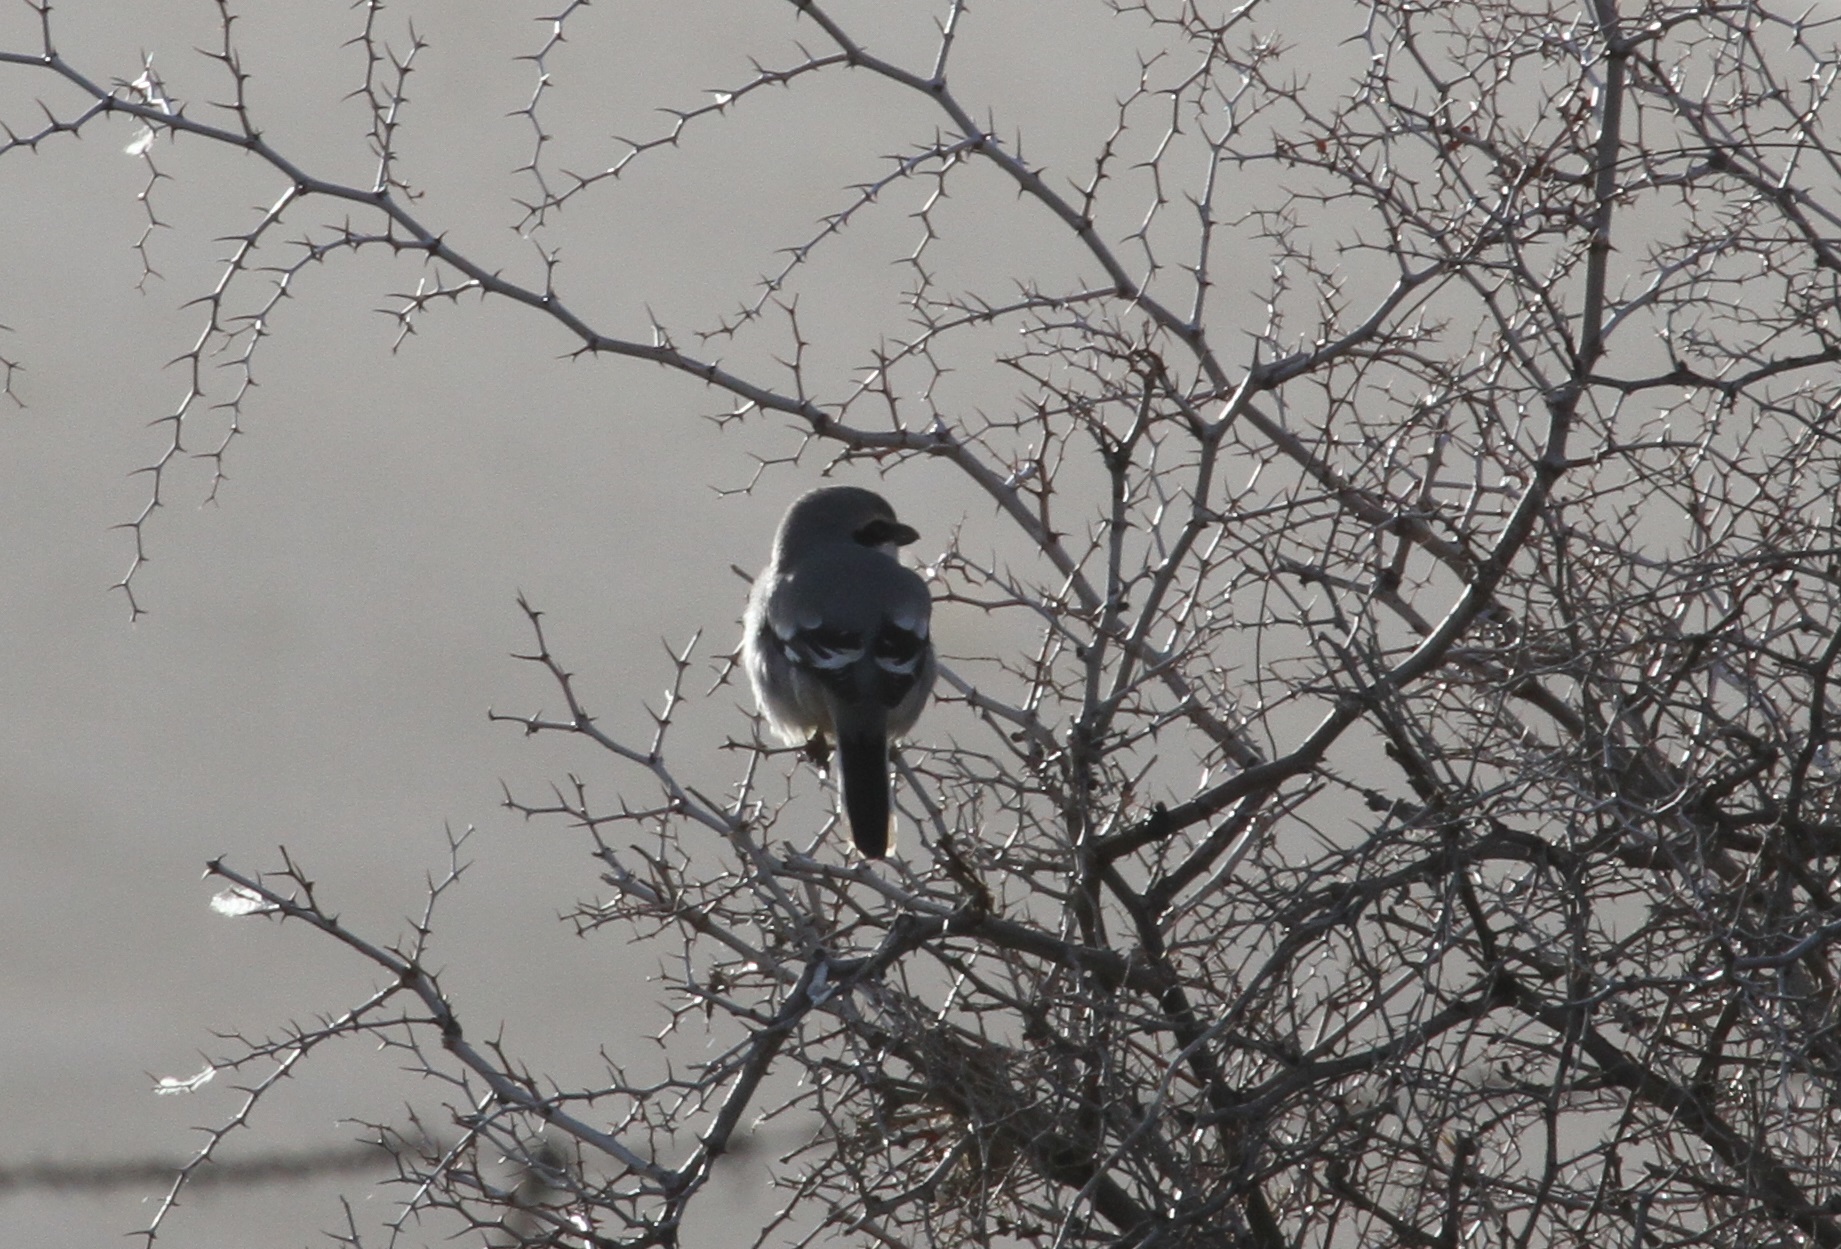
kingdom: Animalia
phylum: Chordata
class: Aves
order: Passeriformes
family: Laniidae
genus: Lanius
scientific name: Lanius excubitor
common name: Great grey shrike
